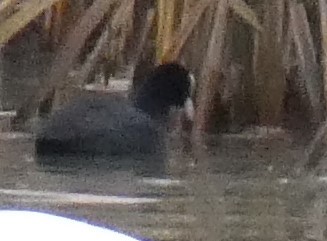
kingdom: Animalia
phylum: Chordata
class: Aves
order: Gruiformes
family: Rallidae
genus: Fulica
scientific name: Fulica atra
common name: Eurasian coot
